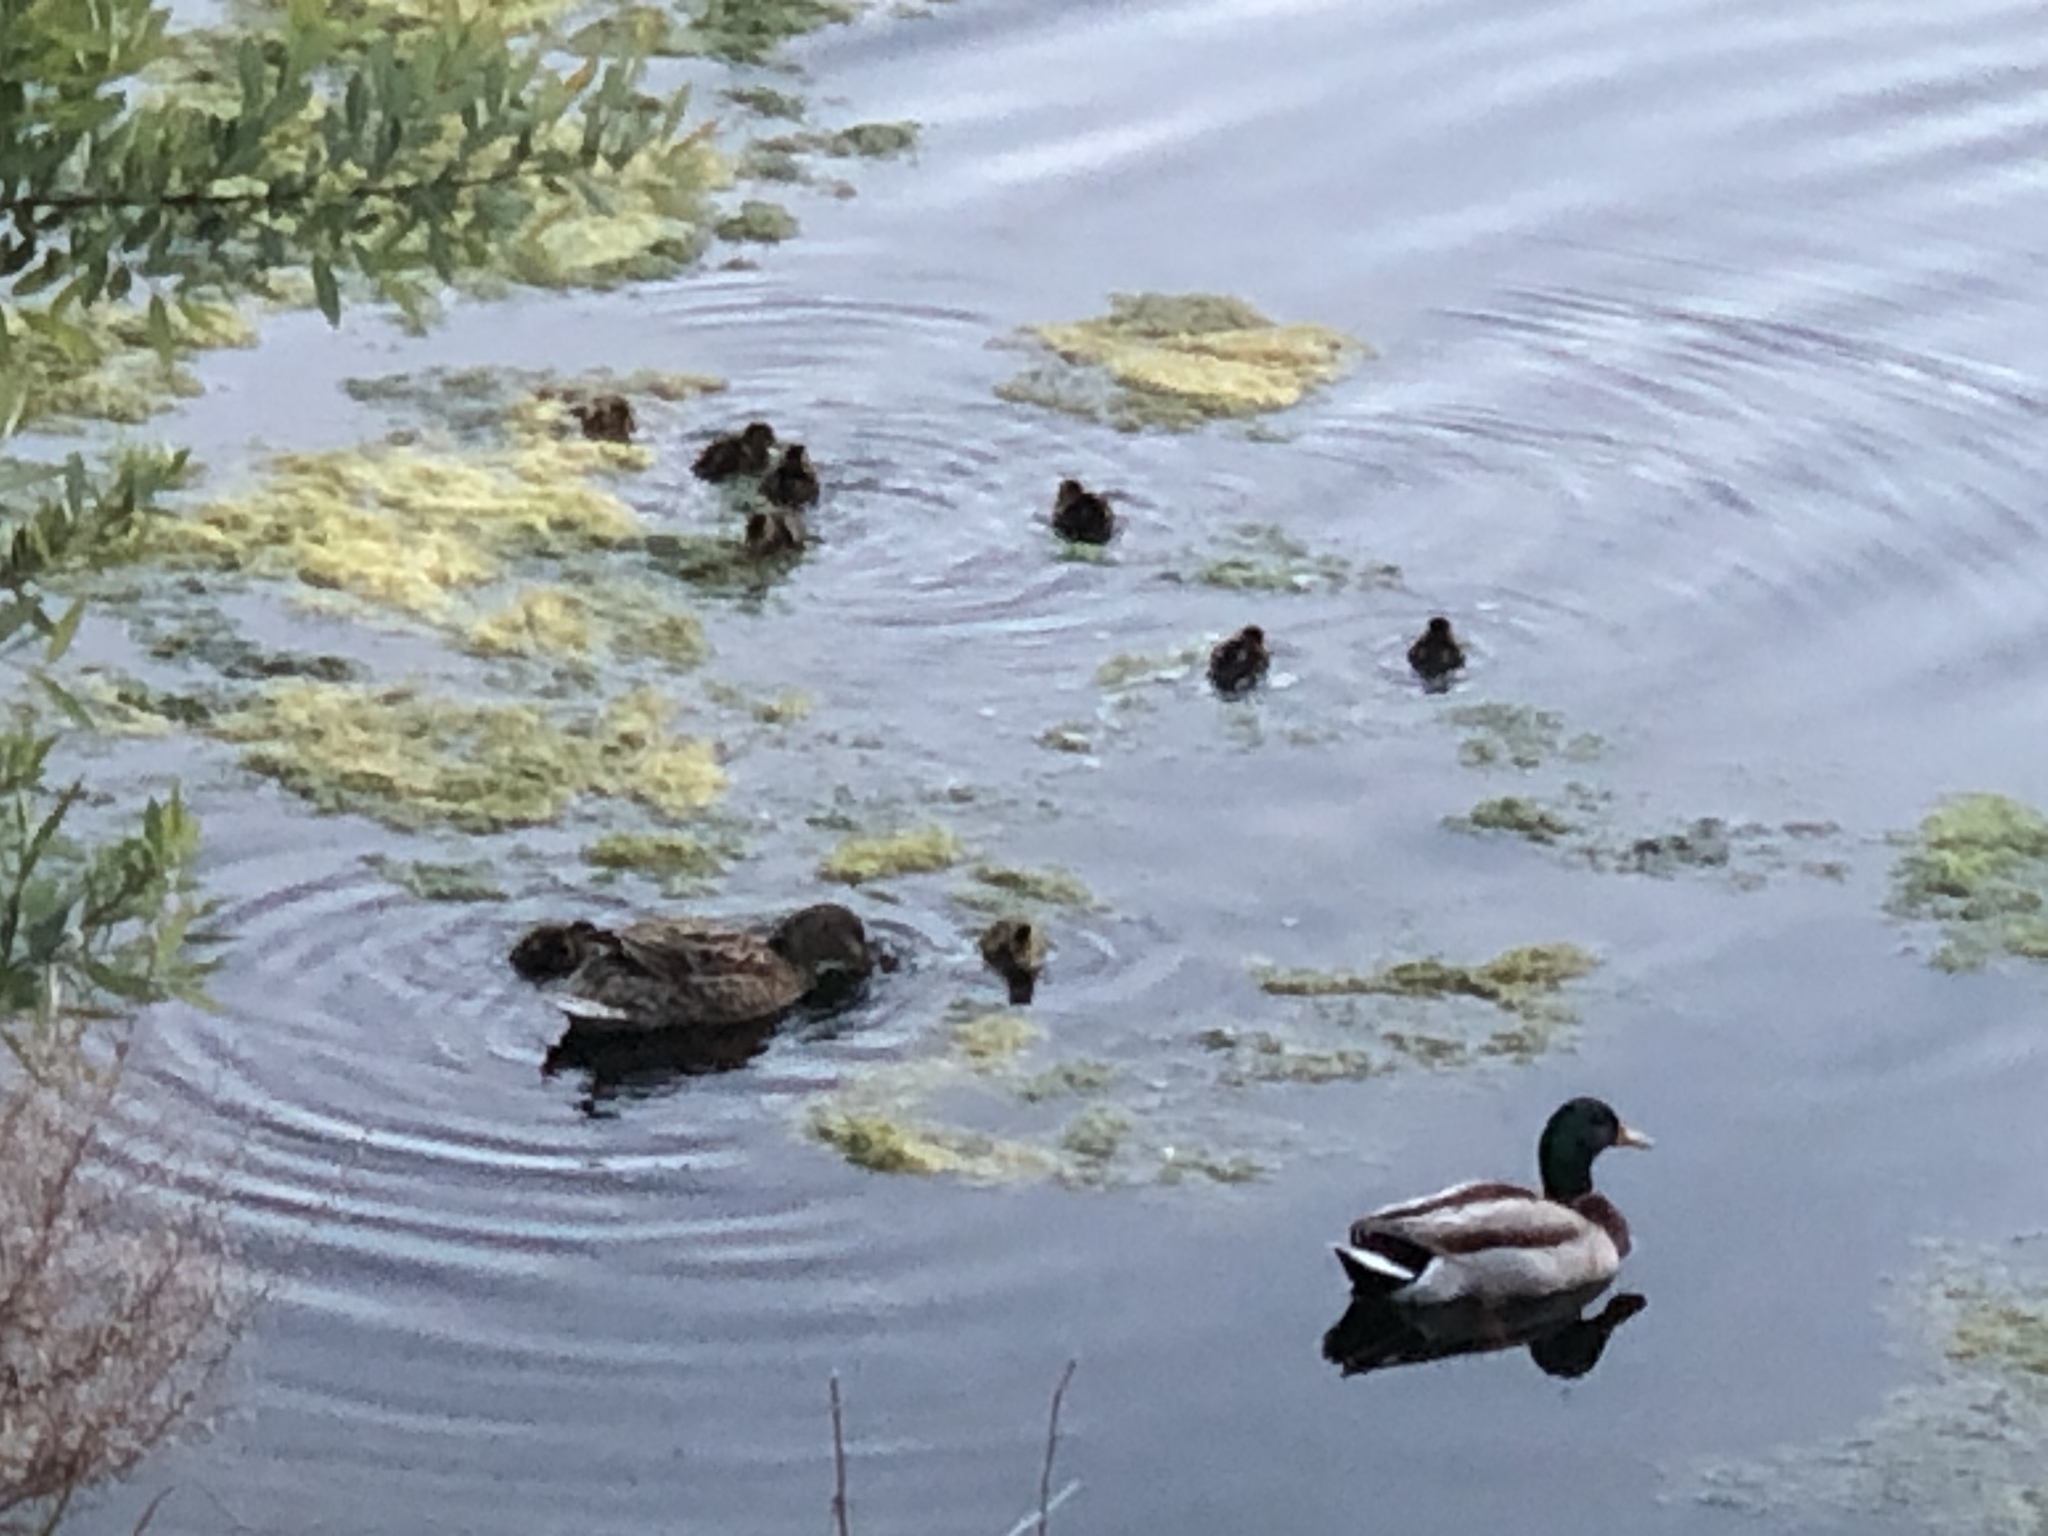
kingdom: Animalia
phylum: Chordata
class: Aves
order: Anseriformes
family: Anatidae
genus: Anas
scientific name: Anas platyrhynchos
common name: Mallard
